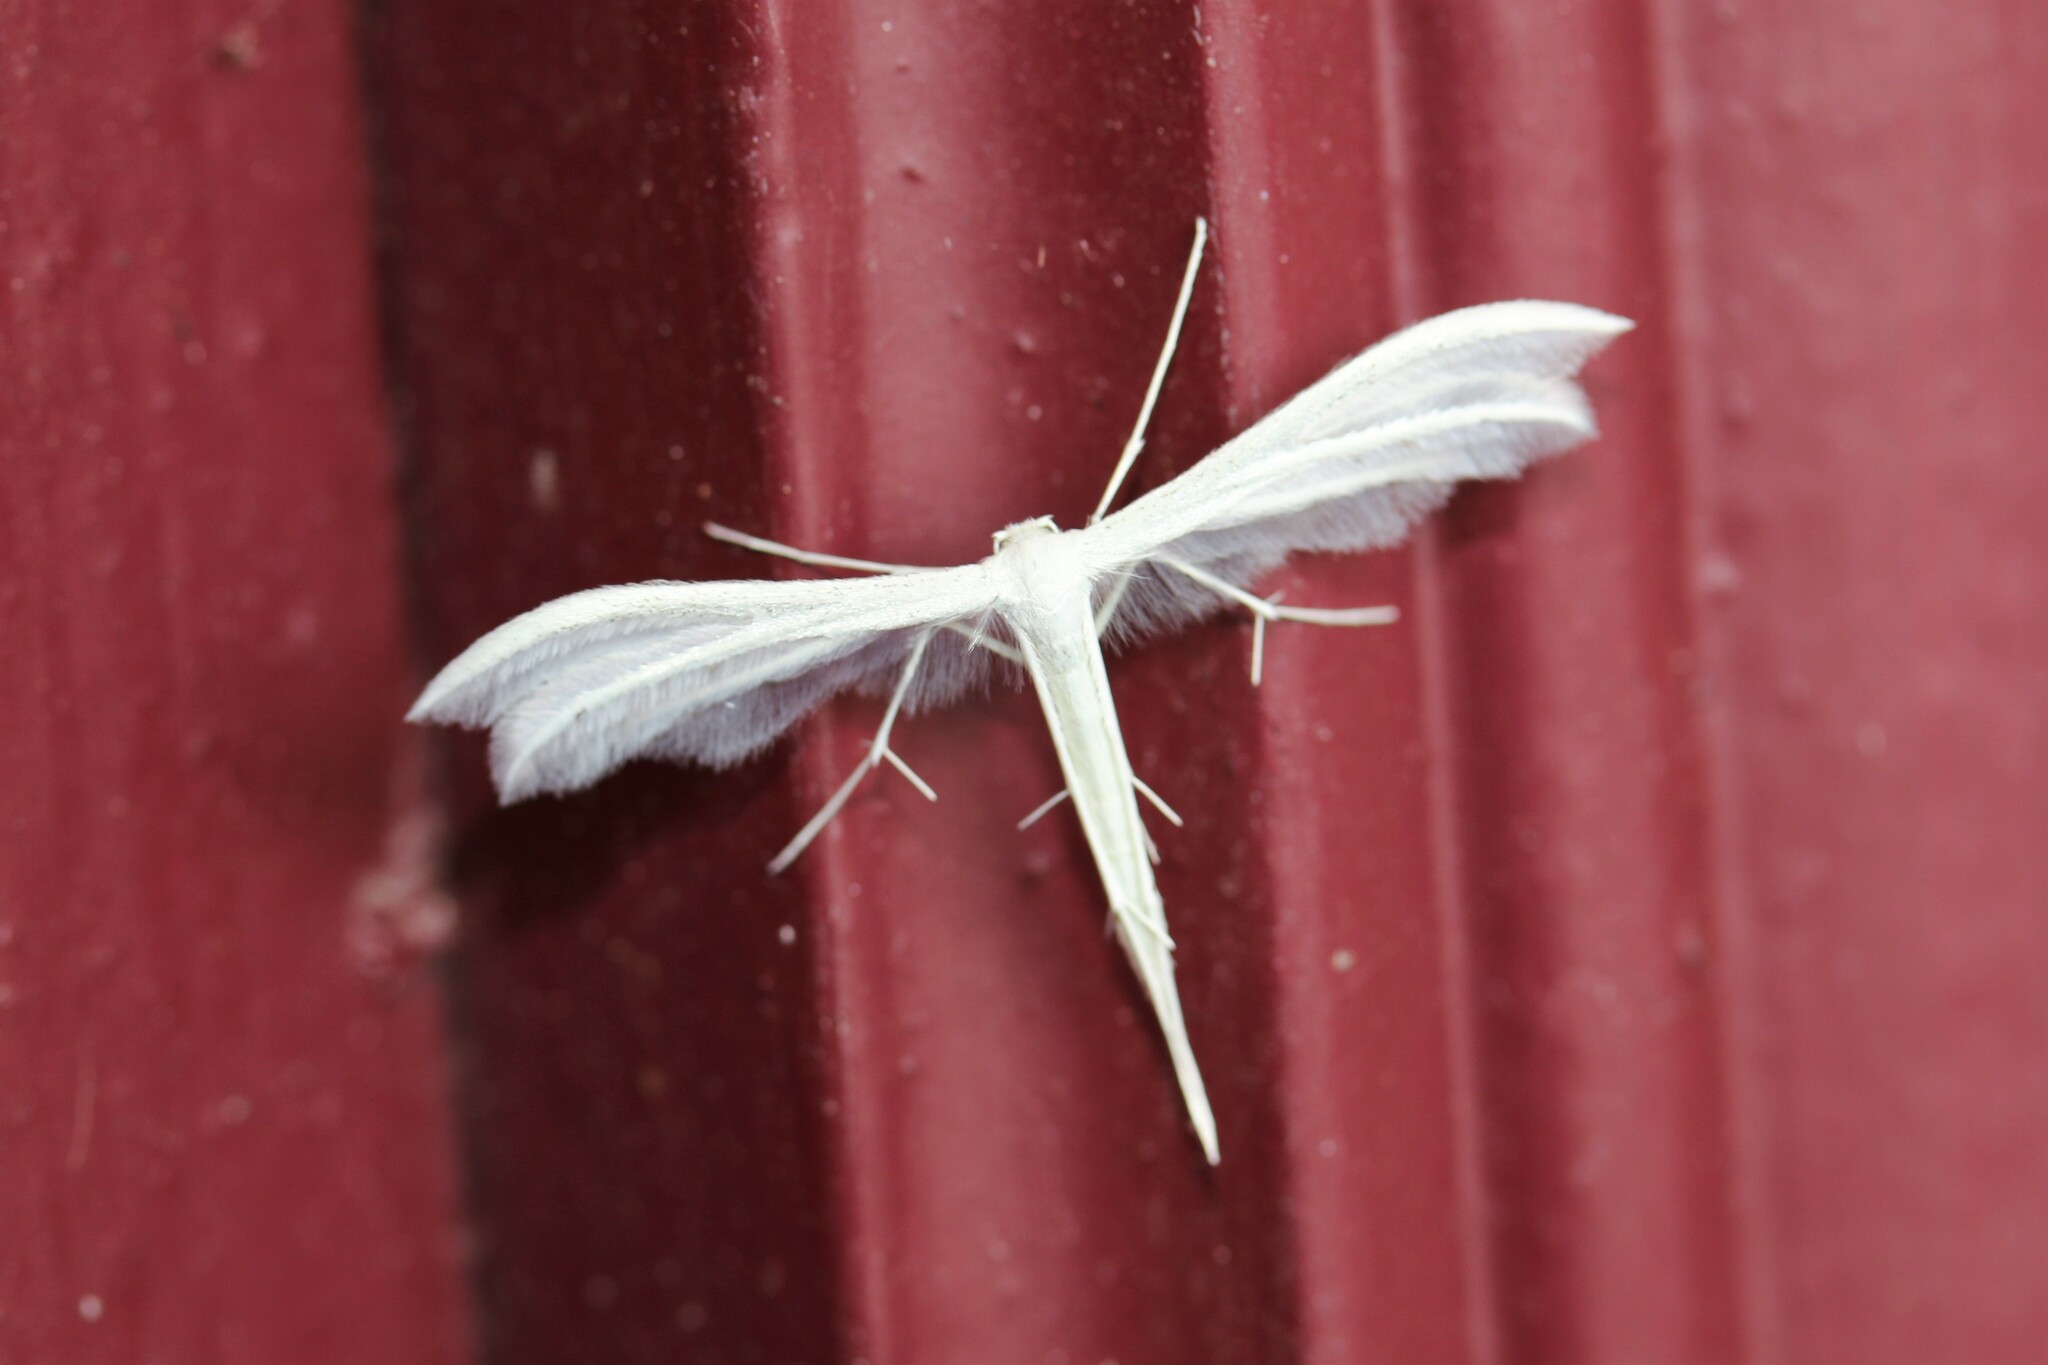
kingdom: Animalia
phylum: Arthropoda
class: Insecta
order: Lepidoptera
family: Pterophoridae
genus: Pterophorus
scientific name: Pterophorus pentadactyla
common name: White plume moth
